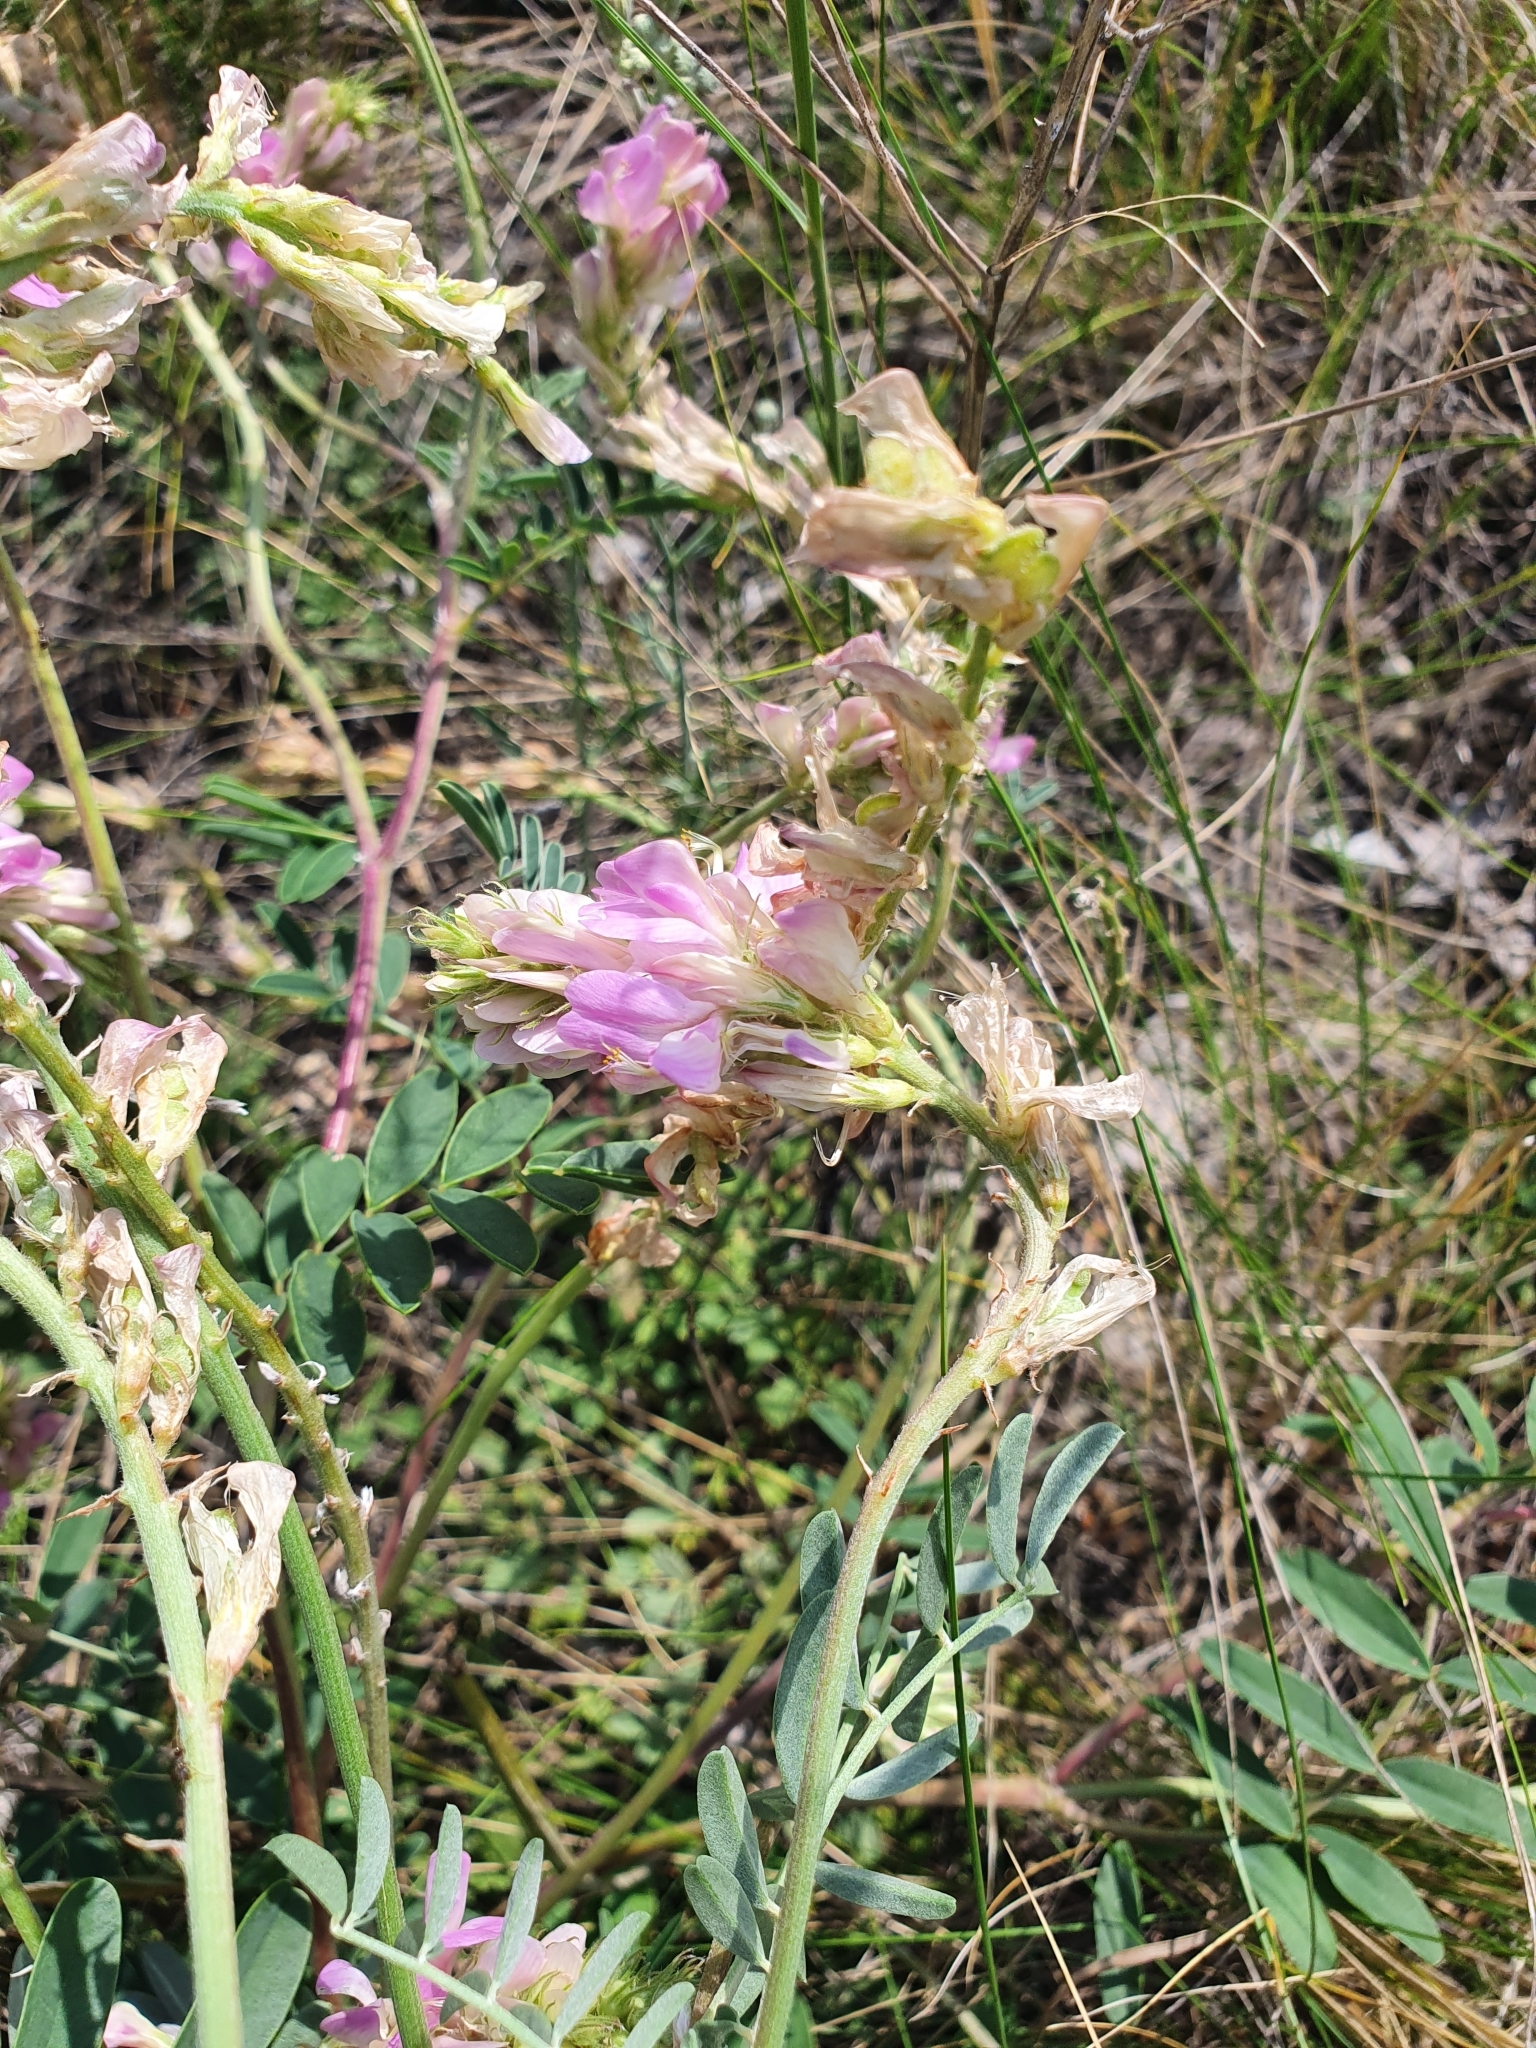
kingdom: Plantae
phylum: Tracheophyta
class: Magnoliopsida
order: Fabales
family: Fabaceae
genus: Hedysarum
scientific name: Hedysarum gmelinii
